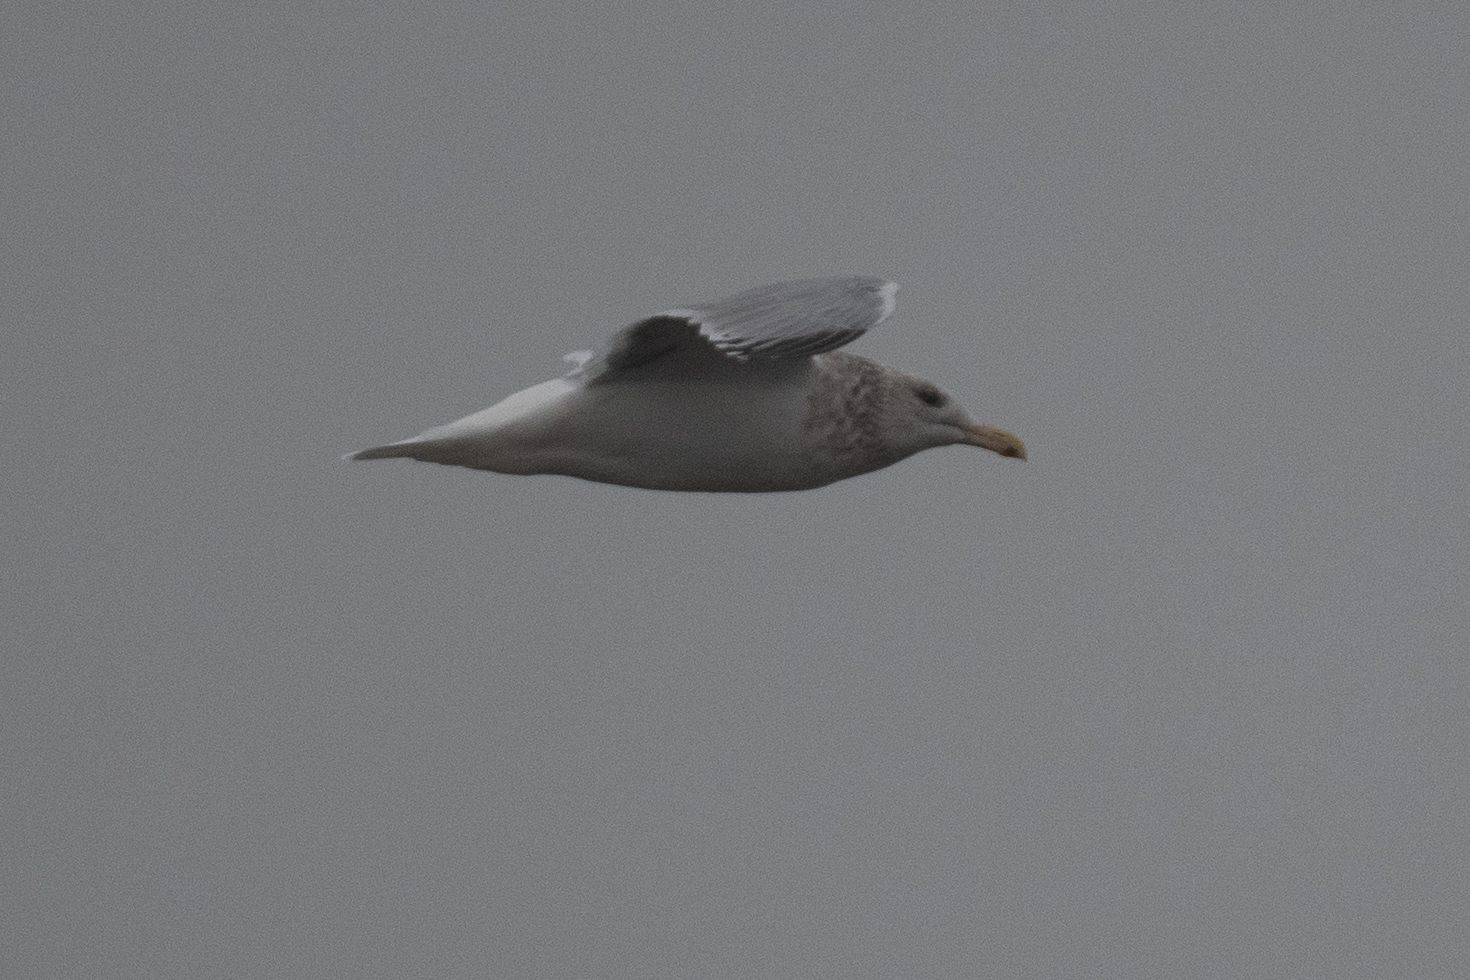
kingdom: Animalia
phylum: Chordata
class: Aves
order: Charadriiformes
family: Laridae
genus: Larus
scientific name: Larus argentatus
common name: Herring gull
